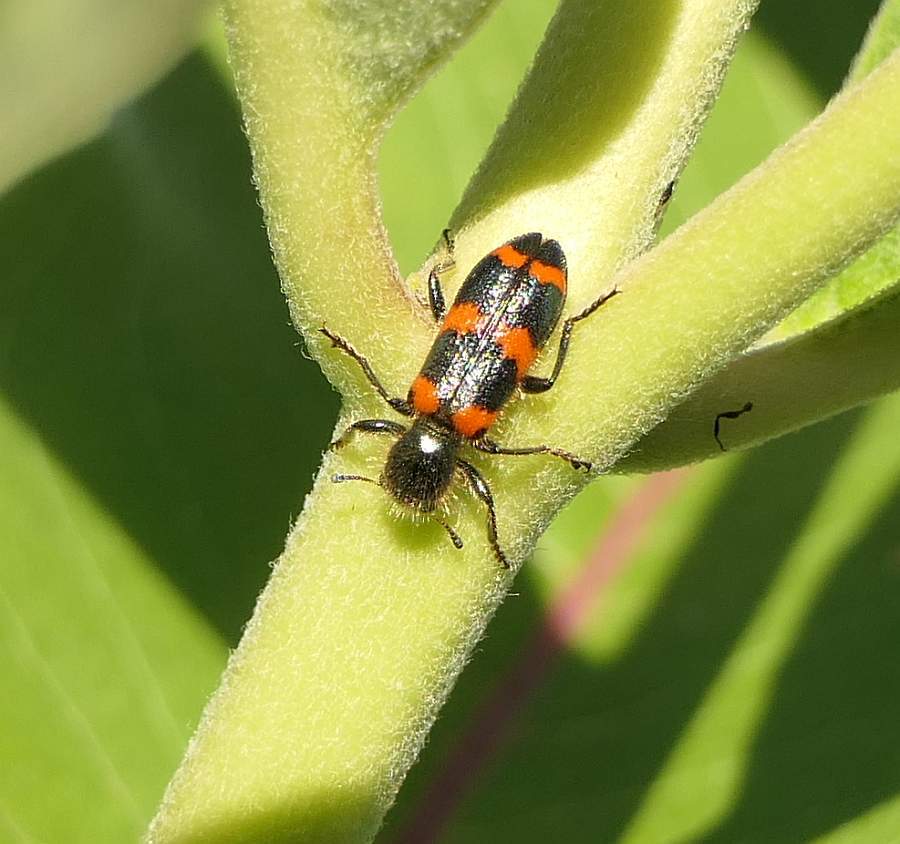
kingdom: Animalia
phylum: Arthropoda
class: Insecta
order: Coleoptera
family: Cleridae
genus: Trichodes
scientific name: Trichodes nutalli
